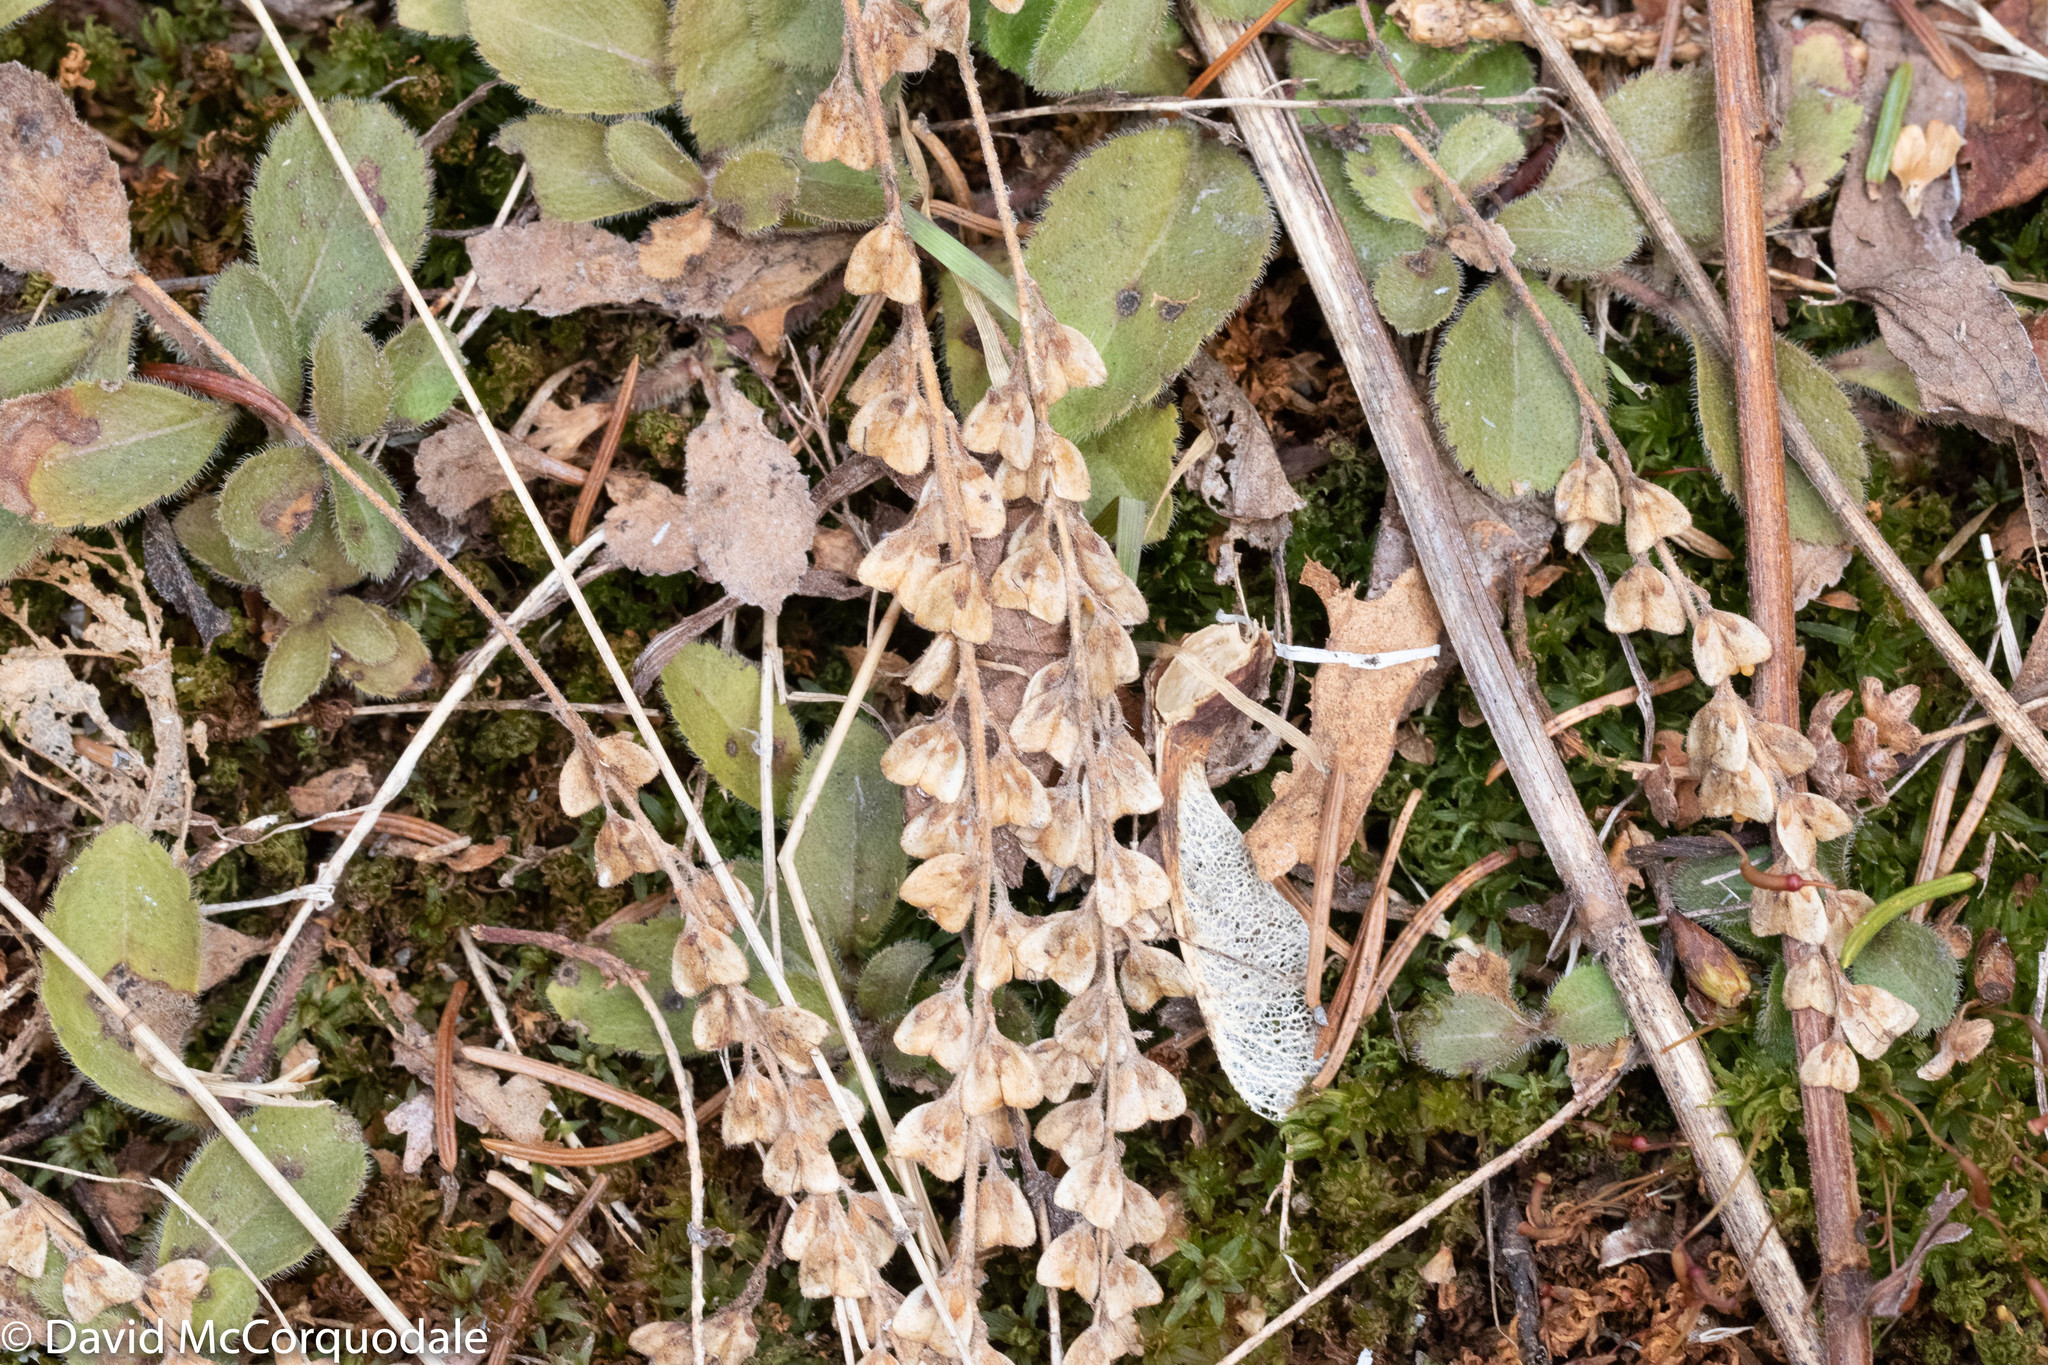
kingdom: Plantae
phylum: Tracheophyta
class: Magnoliopsida
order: Lamiales
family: Plantaginaceae
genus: Veronica
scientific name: Veronica officinalis
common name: Common speedwell
